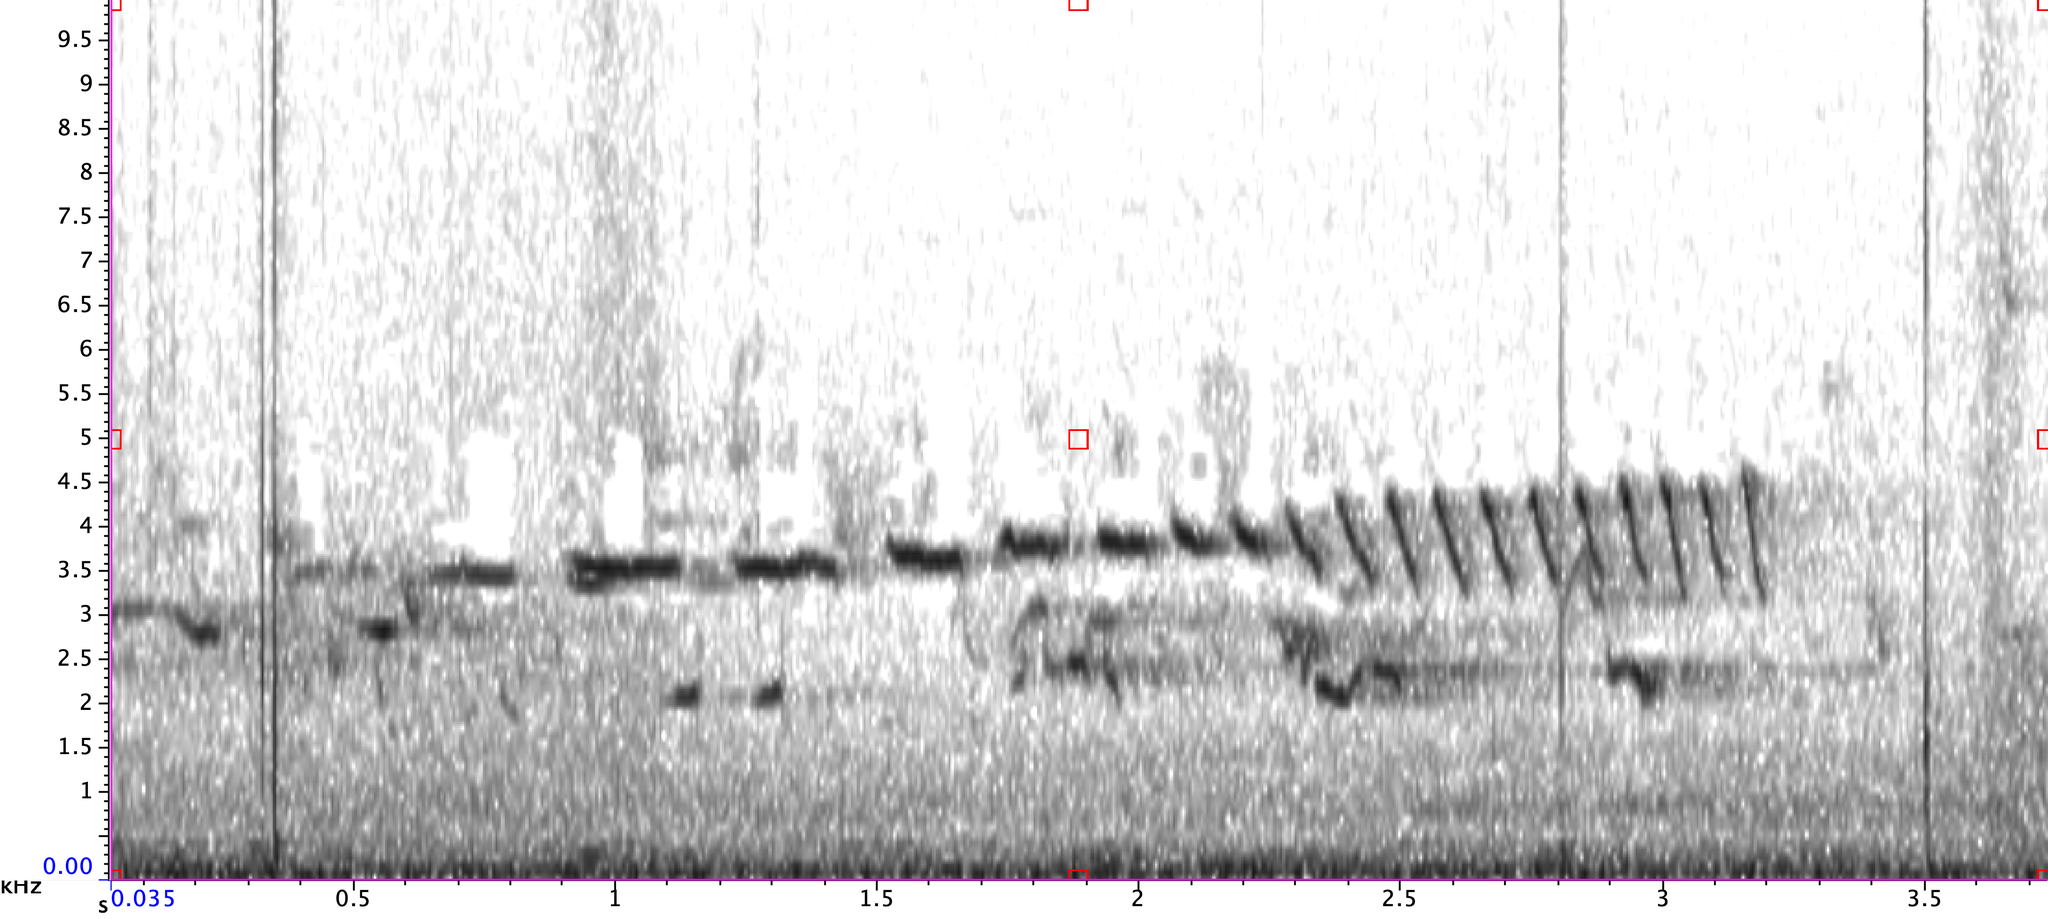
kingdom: Animalia
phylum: Chordata
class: Aves
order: Passeriformes
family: Passerellidae
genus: Spizella
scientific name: Spizella pusilla
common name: Field sparrow
